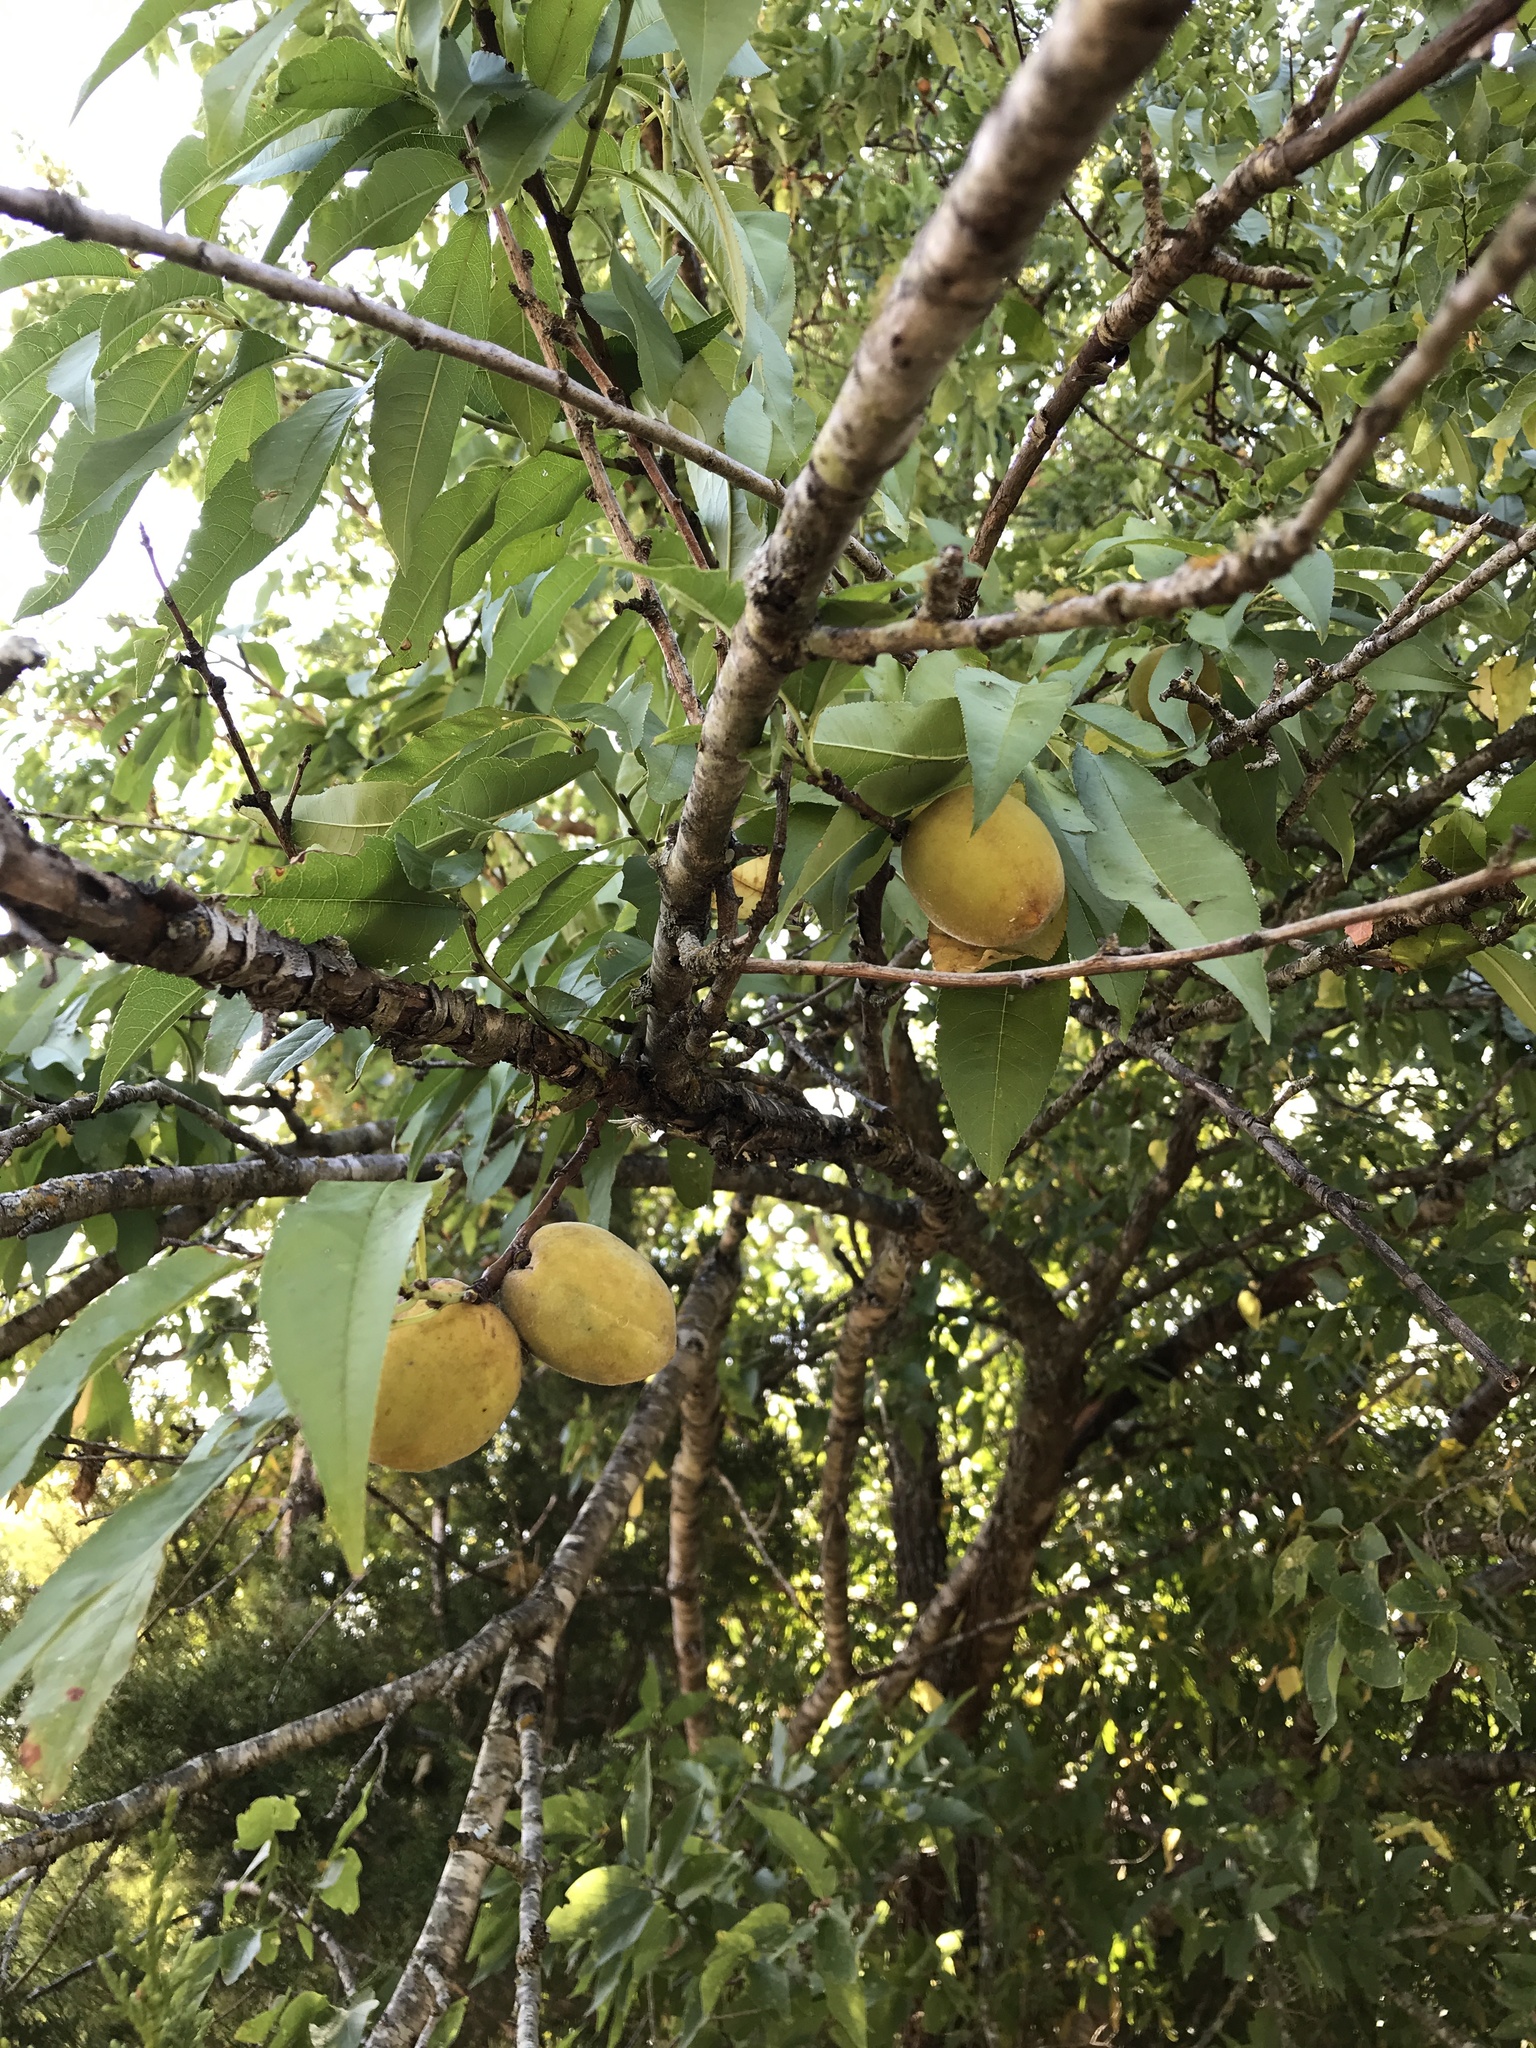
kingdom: Plantae
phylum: Tracheophyta
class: Magnoliopsida
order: Rosales
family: Rosaceae
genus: Prunus
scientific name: Prunus persica
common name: Peach
